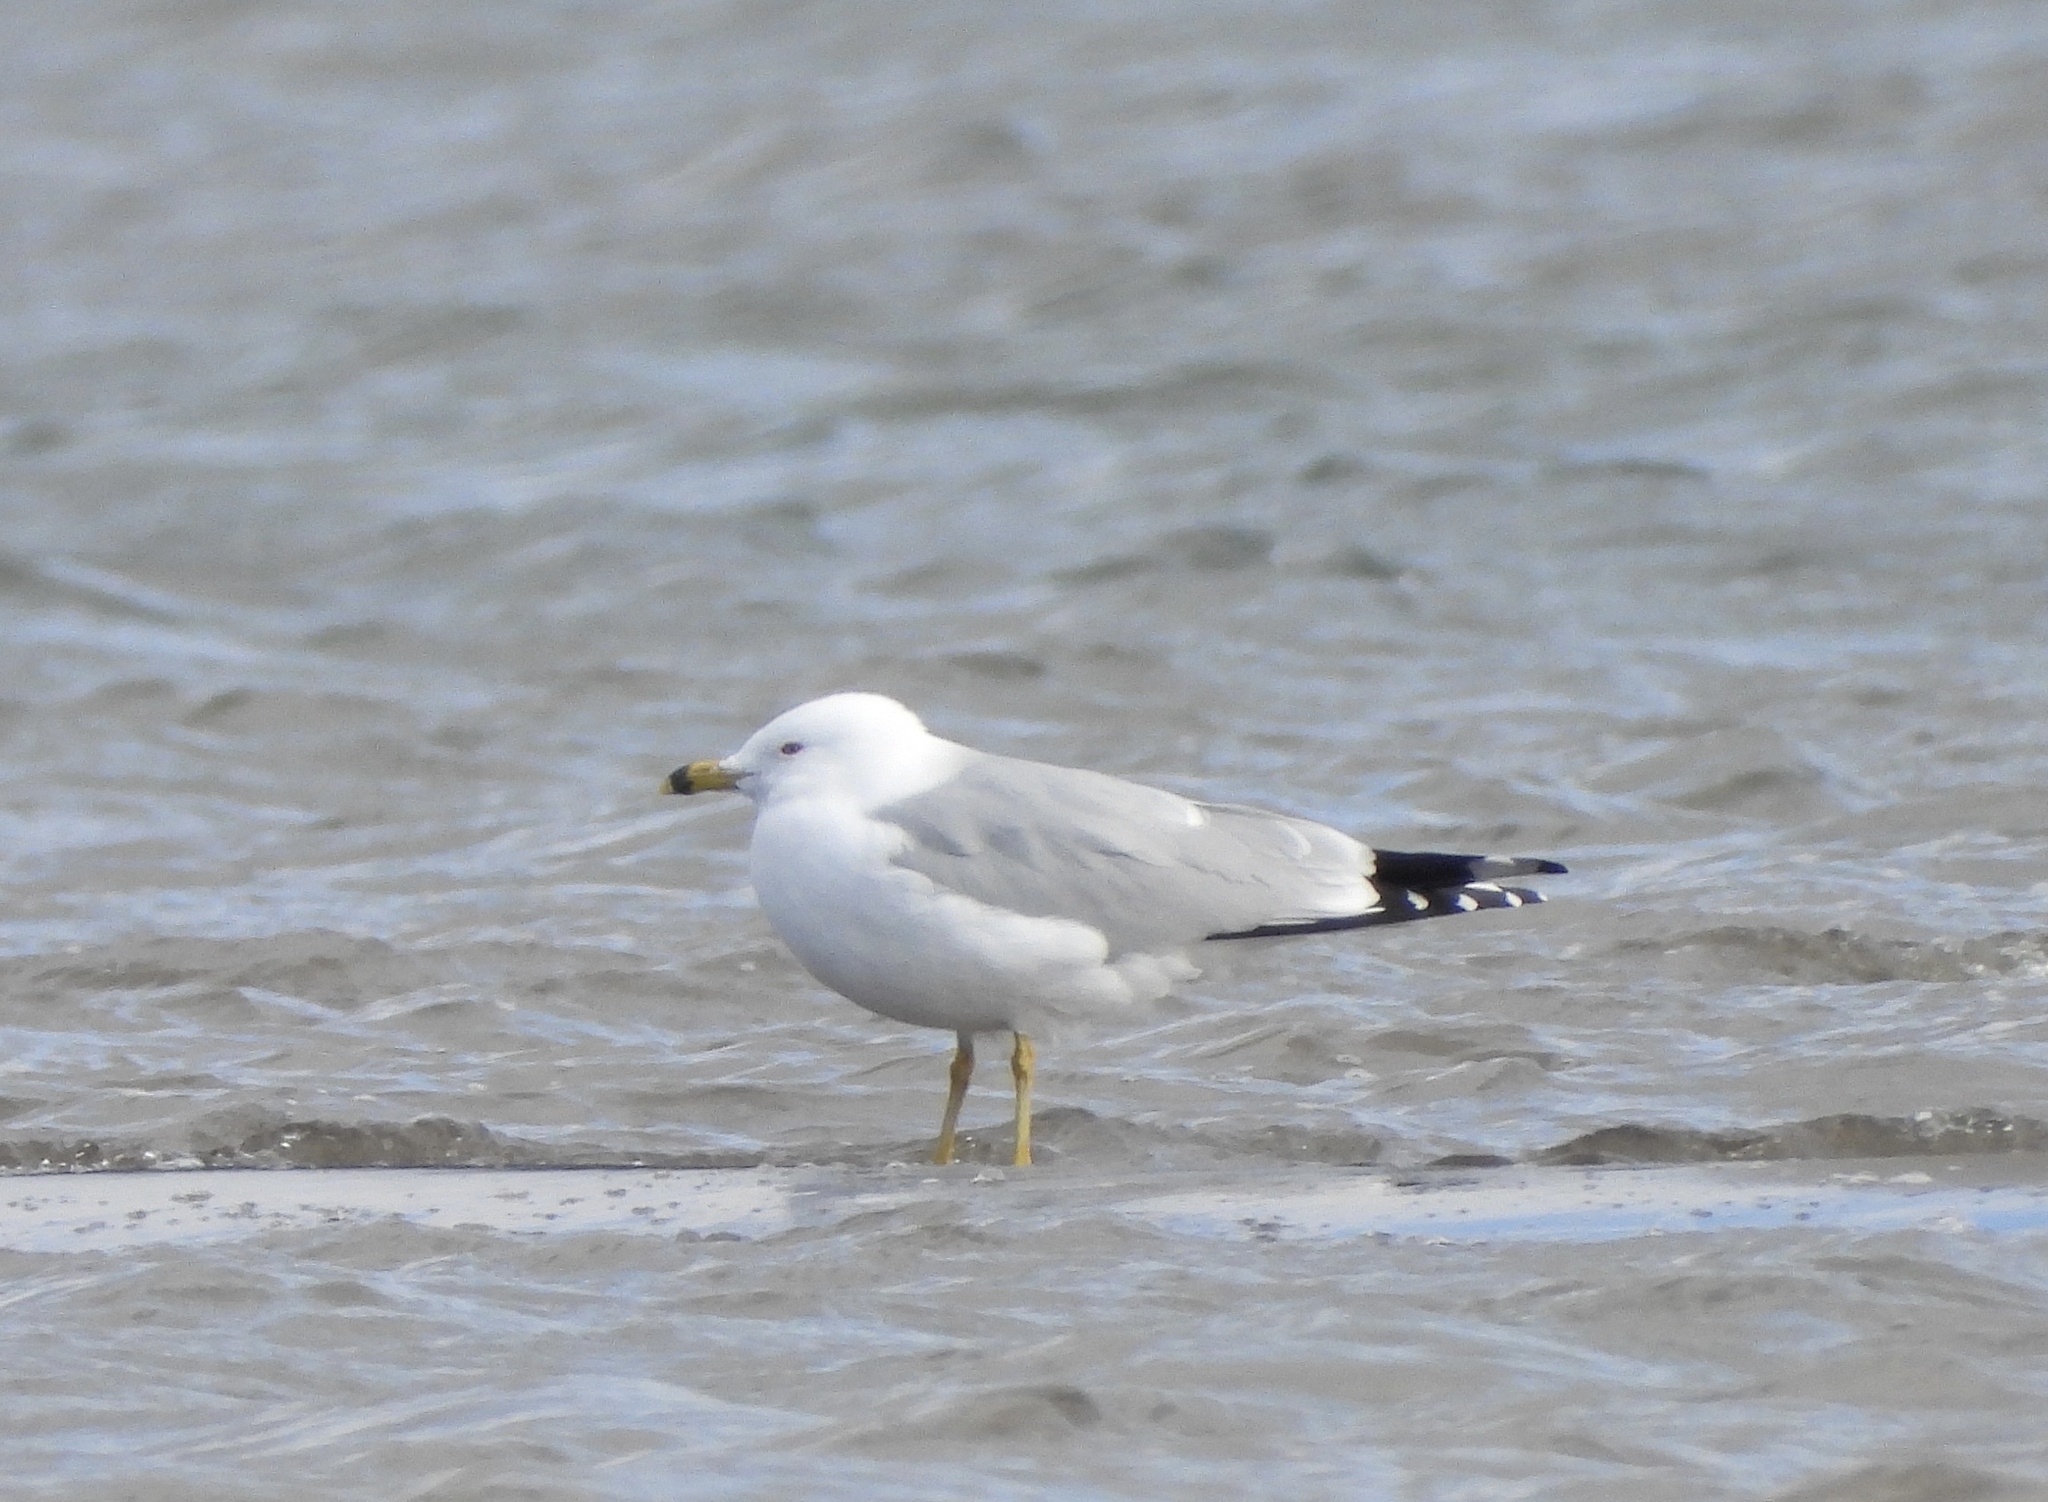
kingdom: Animalia
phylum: Chordata
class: Aves
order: Charadriiformes
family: Laridae
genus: Larus
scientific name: Larus delawarensis
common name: Ring-billed gull
